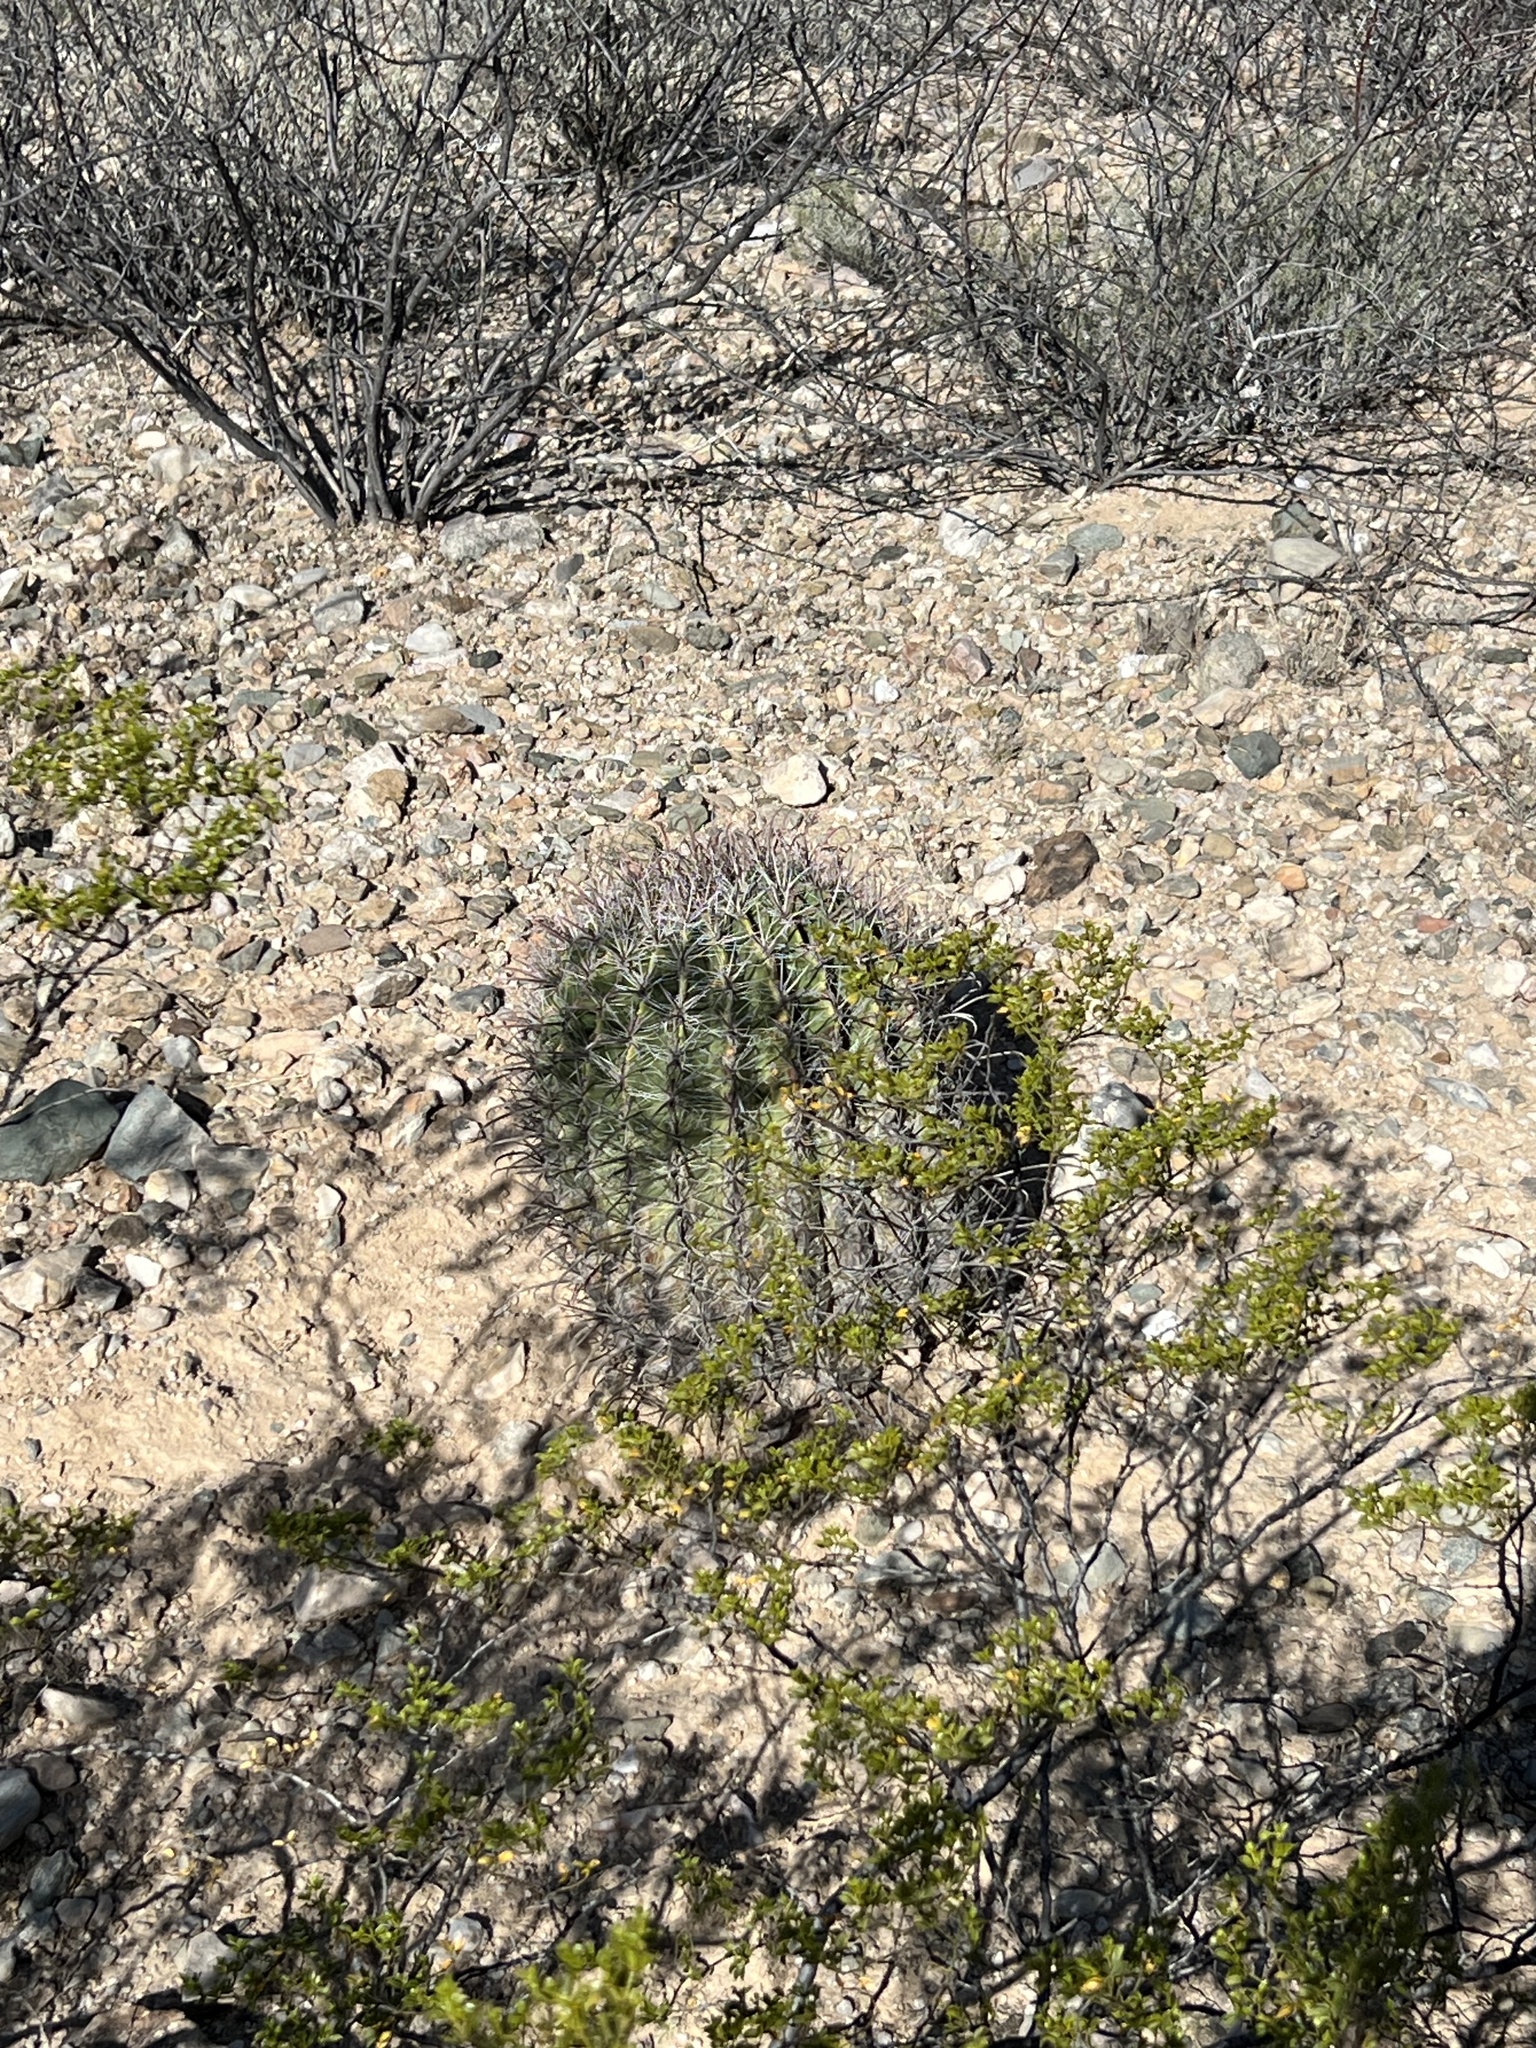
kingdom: Plantae
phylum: Tracheophyta
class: Magnoliopsida
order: Caryophyllales
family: Cactaceae
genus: Ferocactus
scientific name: Ferocactus wislizeni
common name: Candy barrel cactus
